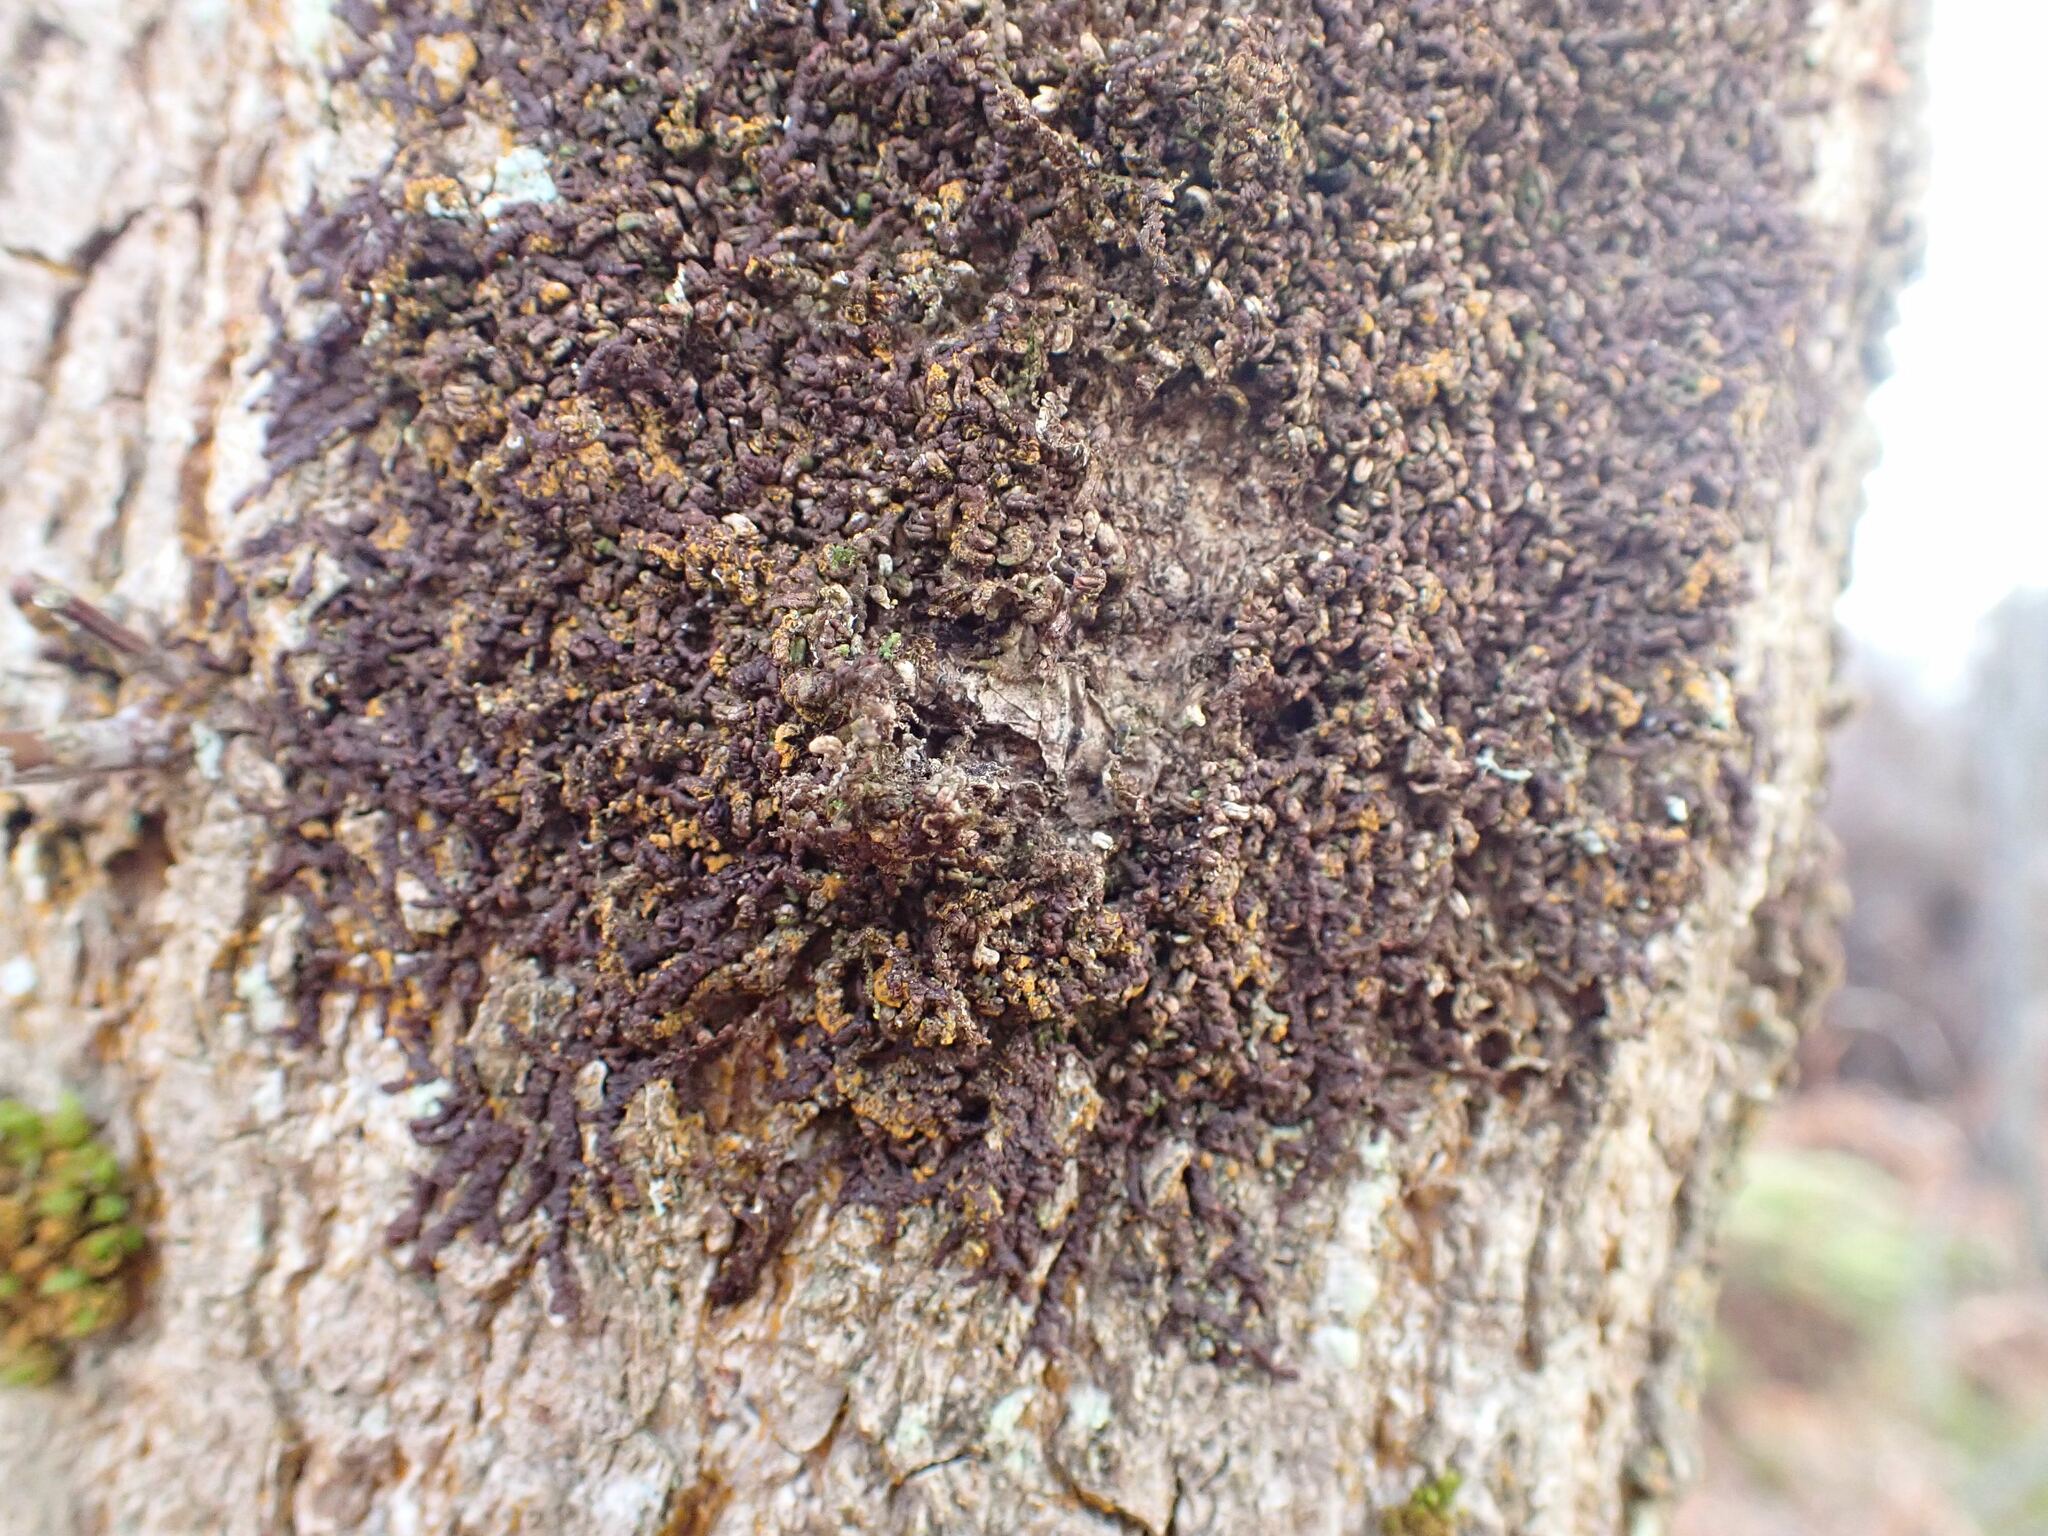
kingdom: Plantae
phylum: Marchantiophyta
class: Jungermanniopsida
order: Porellales
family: Frullaniaceae
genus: Frullania
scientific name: Frullania dilatata
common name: Dilated scalewort
